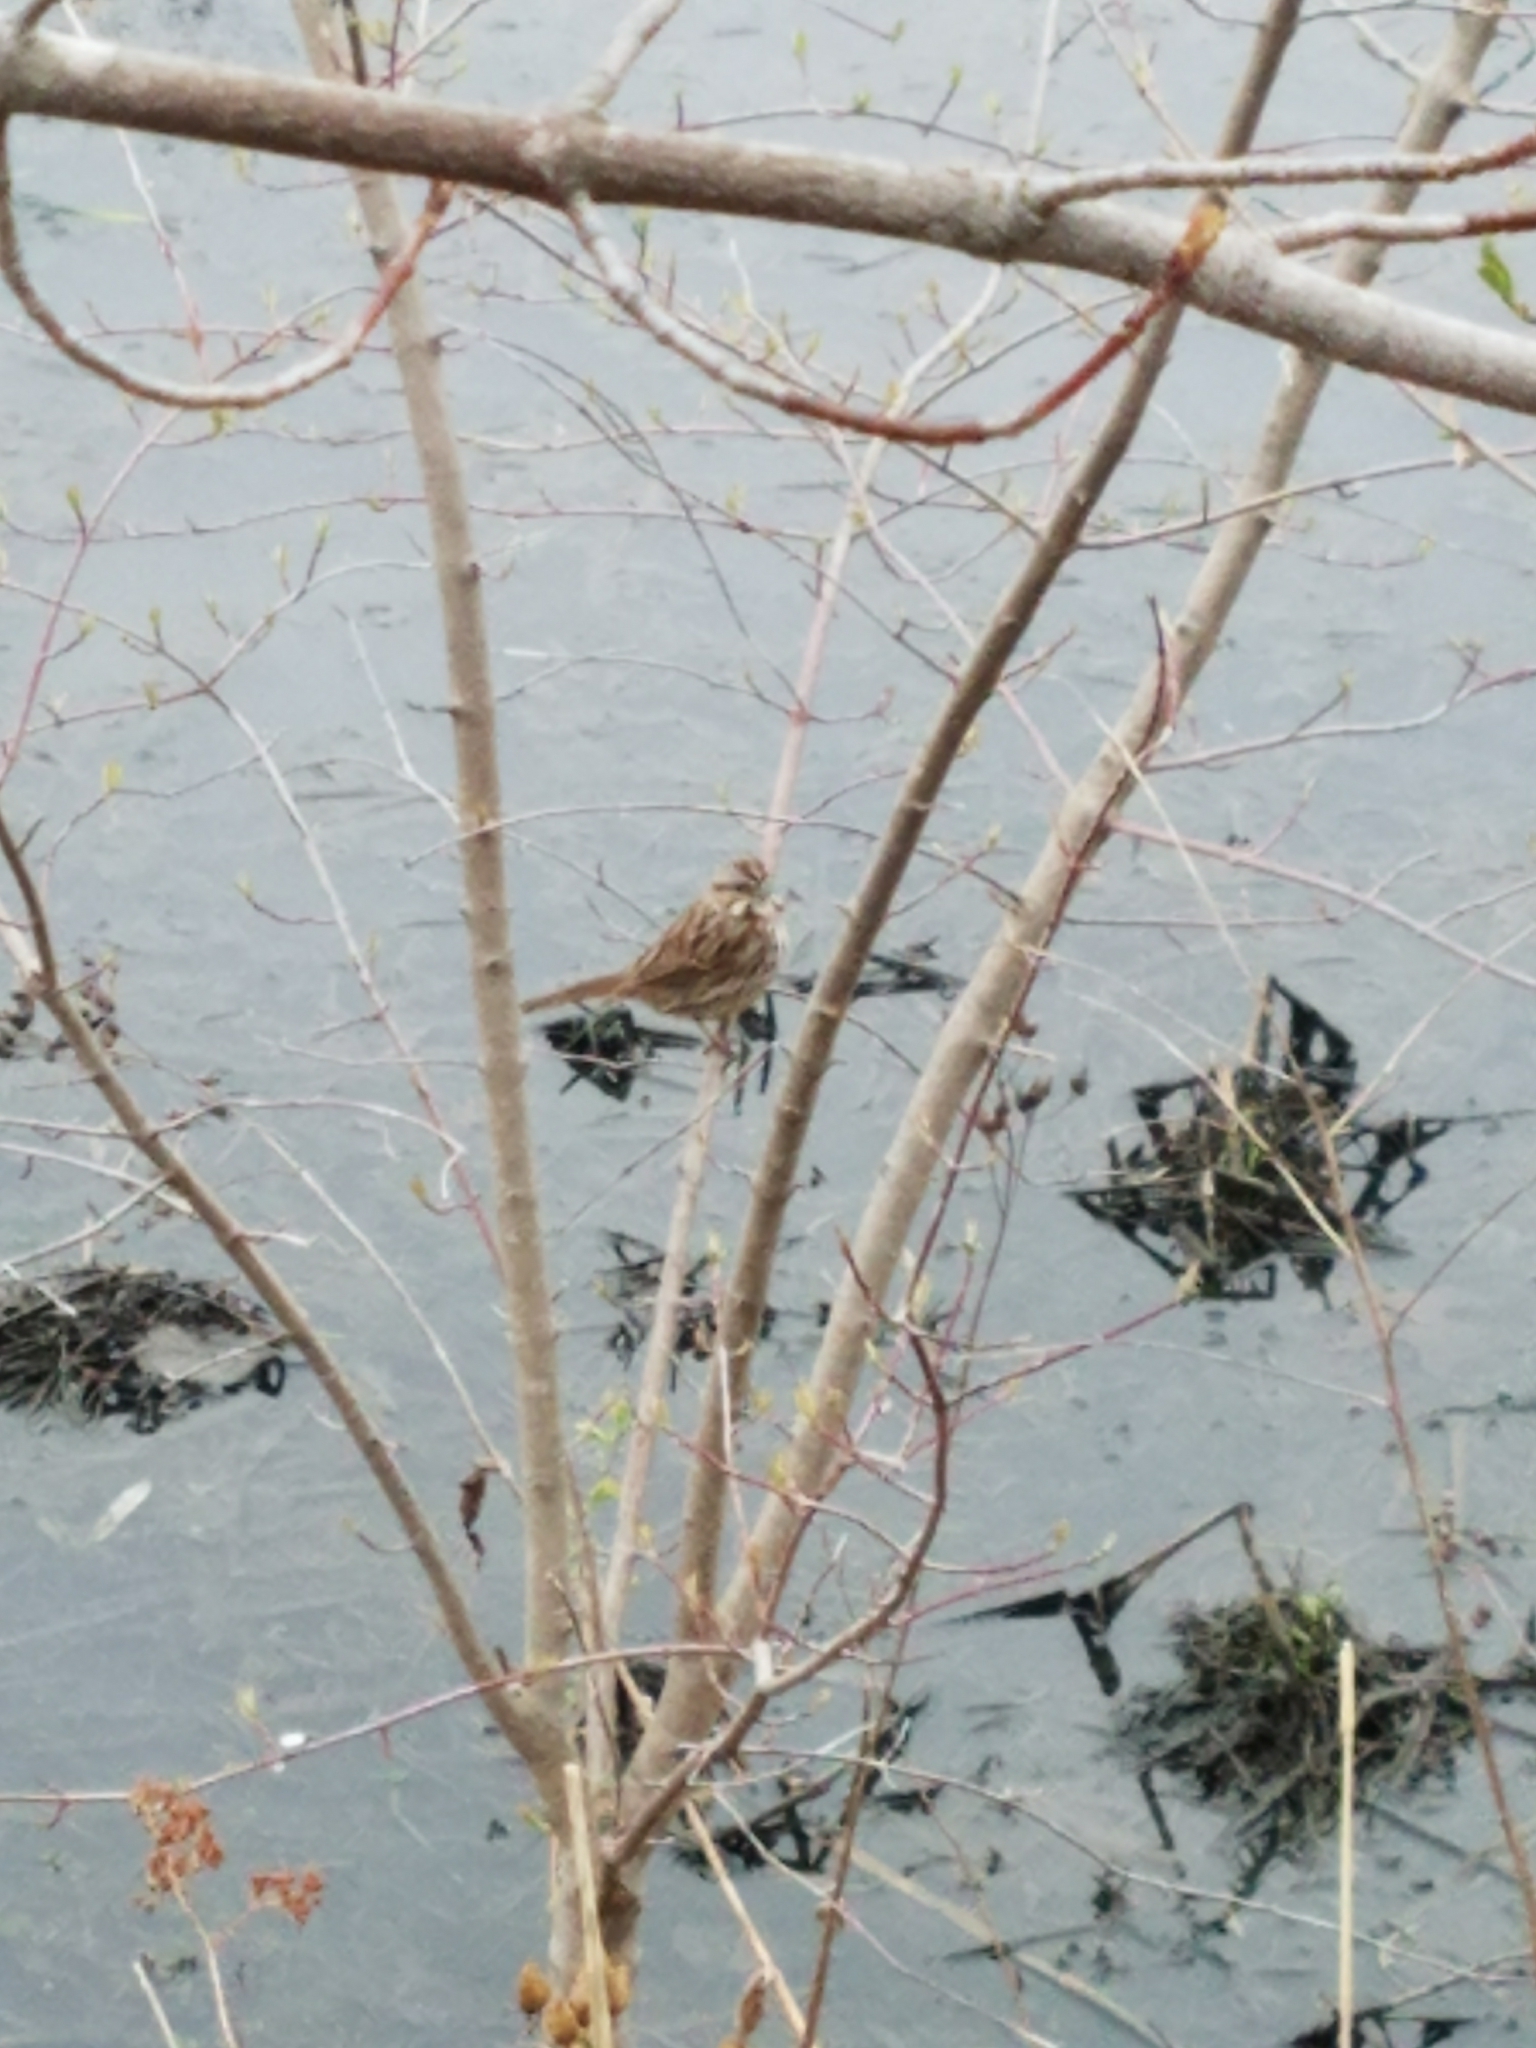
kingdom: Animalia
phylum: Chordata
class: Aves
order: Passeriformes
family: Passerellidae
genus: Melospiza
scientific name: Melospiza melodia
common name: Song sparrow
